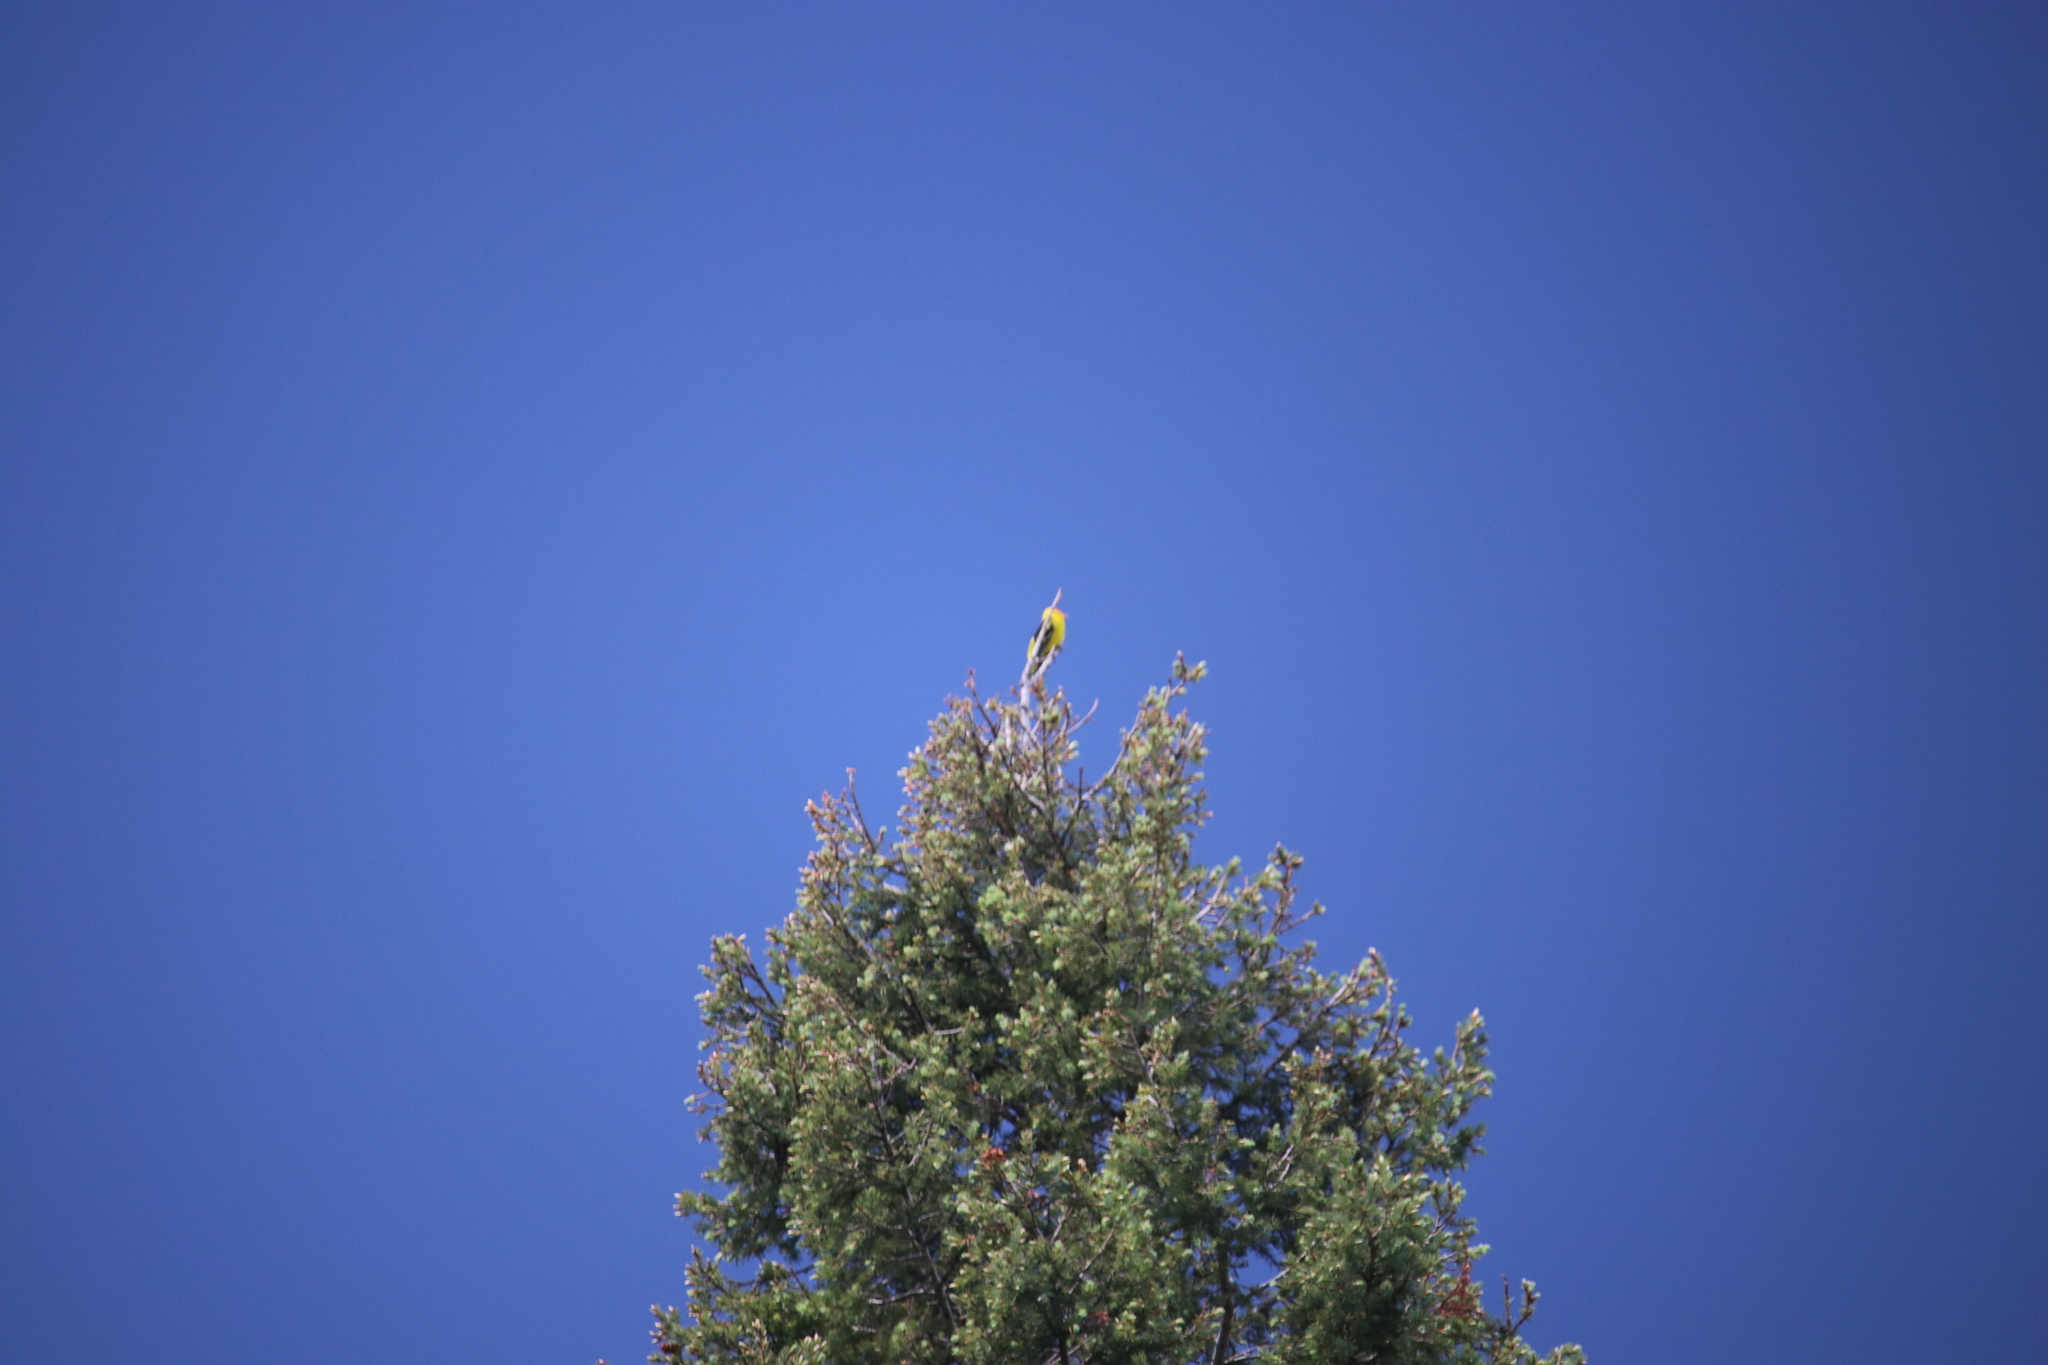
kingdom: Animalia
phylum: Chordata
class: Aves
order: Passeriformes
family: Cardinalidae
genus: Piranga
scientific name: Piranga ludoviciana
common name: Western tanager
